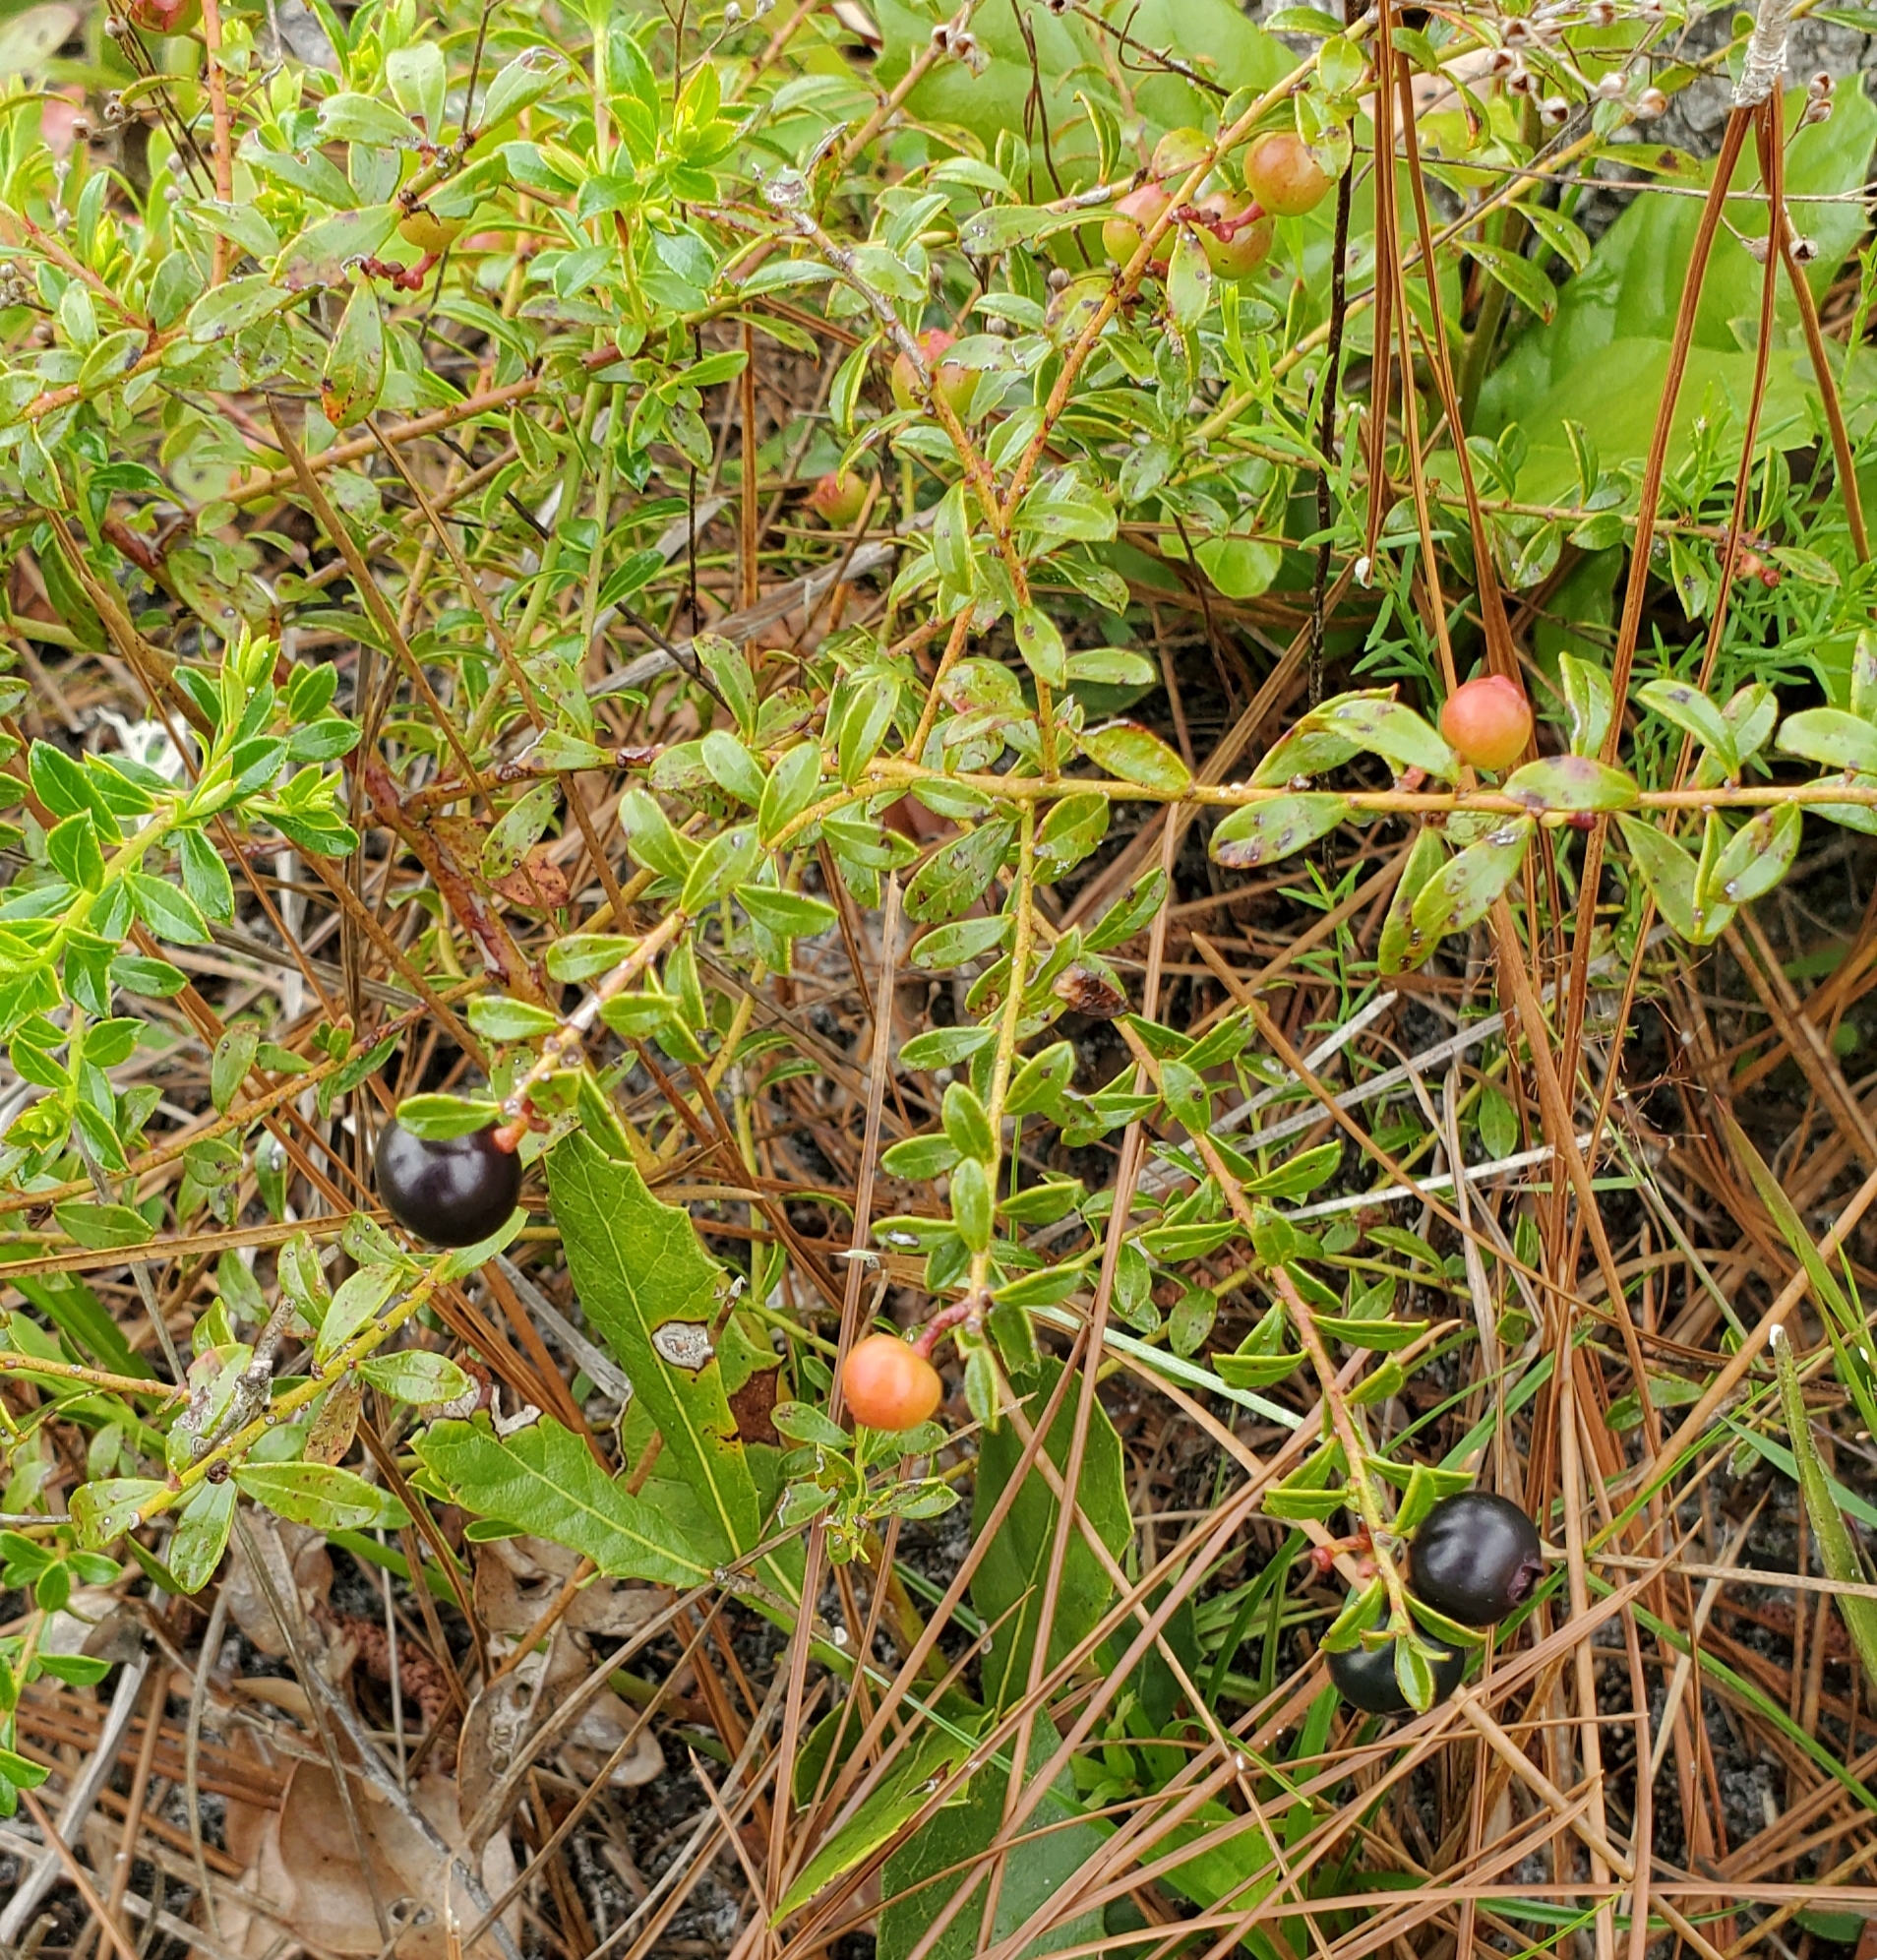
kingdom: Plantae
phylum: Tracheophyta
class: Magnoliopsida
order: Ericales
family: Ericaceae
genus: Vaccinium
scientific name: Vaccinium myrsinites
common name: Evergreen blueberry
